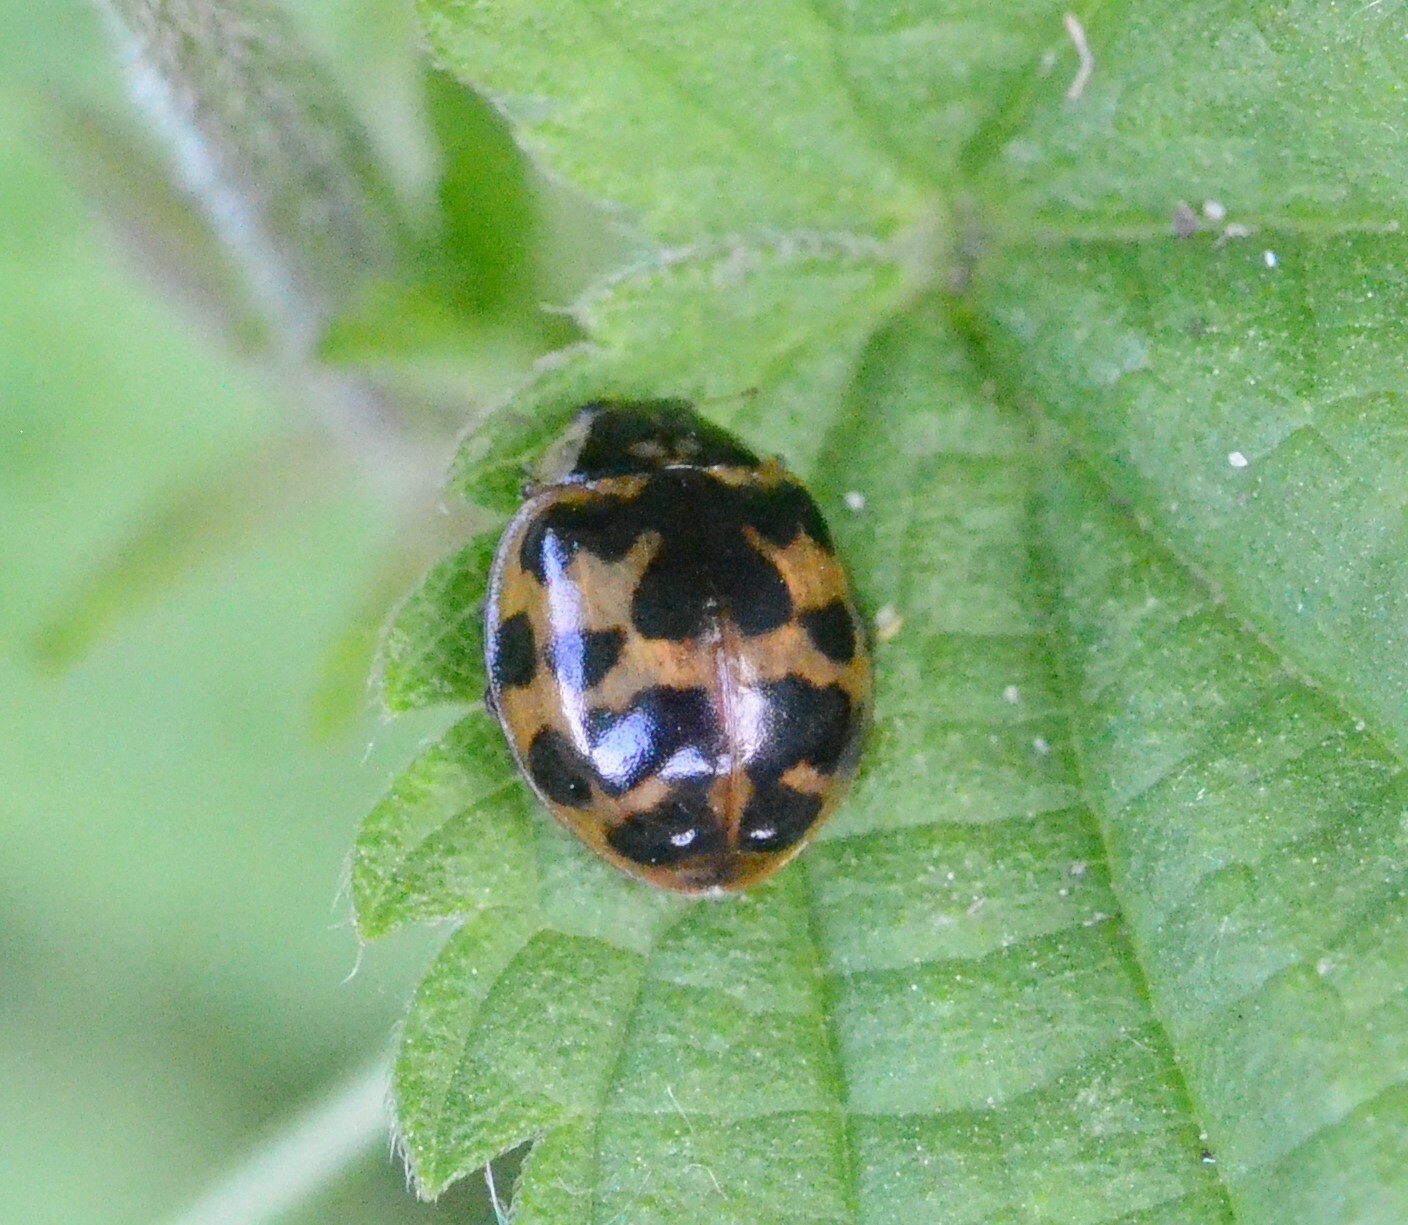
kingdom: Animalia
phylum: Arthropoda
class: Insecta
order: Coleoptera
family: Coccinellidae
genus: Harmonia
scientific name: Harmonia axyridis
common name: Harlequin ladybird
